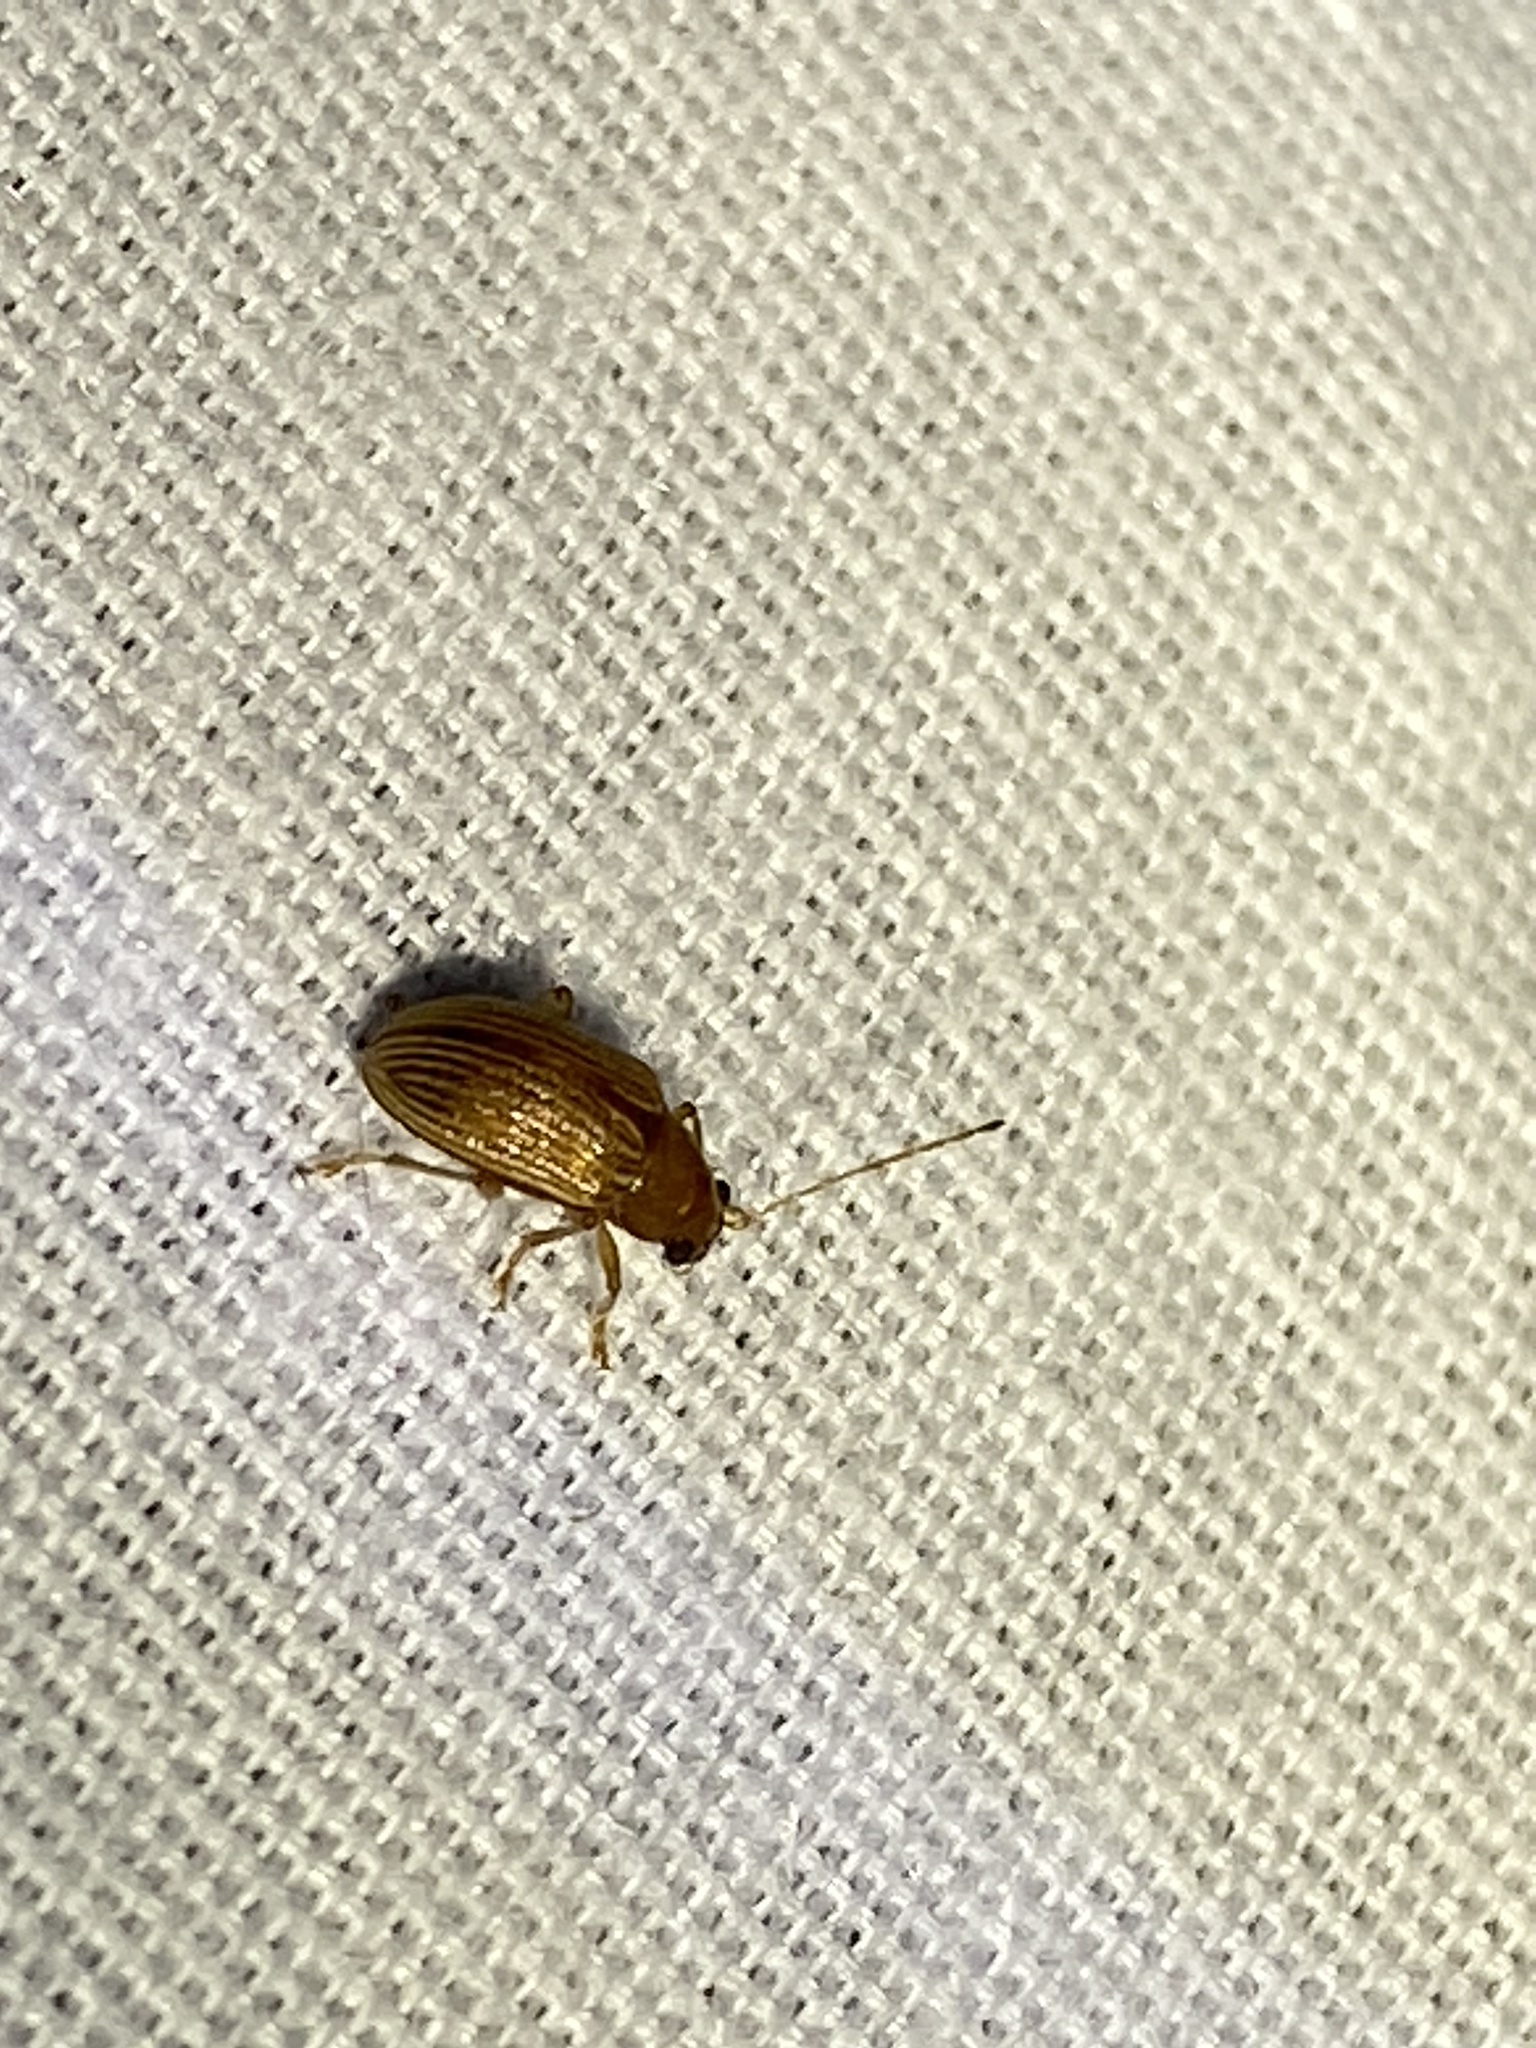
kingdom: Animalia
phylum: Arthropoda
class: Insecta
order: Coleoptera
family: Chrysomelidae
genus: Colaspis
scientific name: Colaspis brunnea
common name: Grape colaspis
